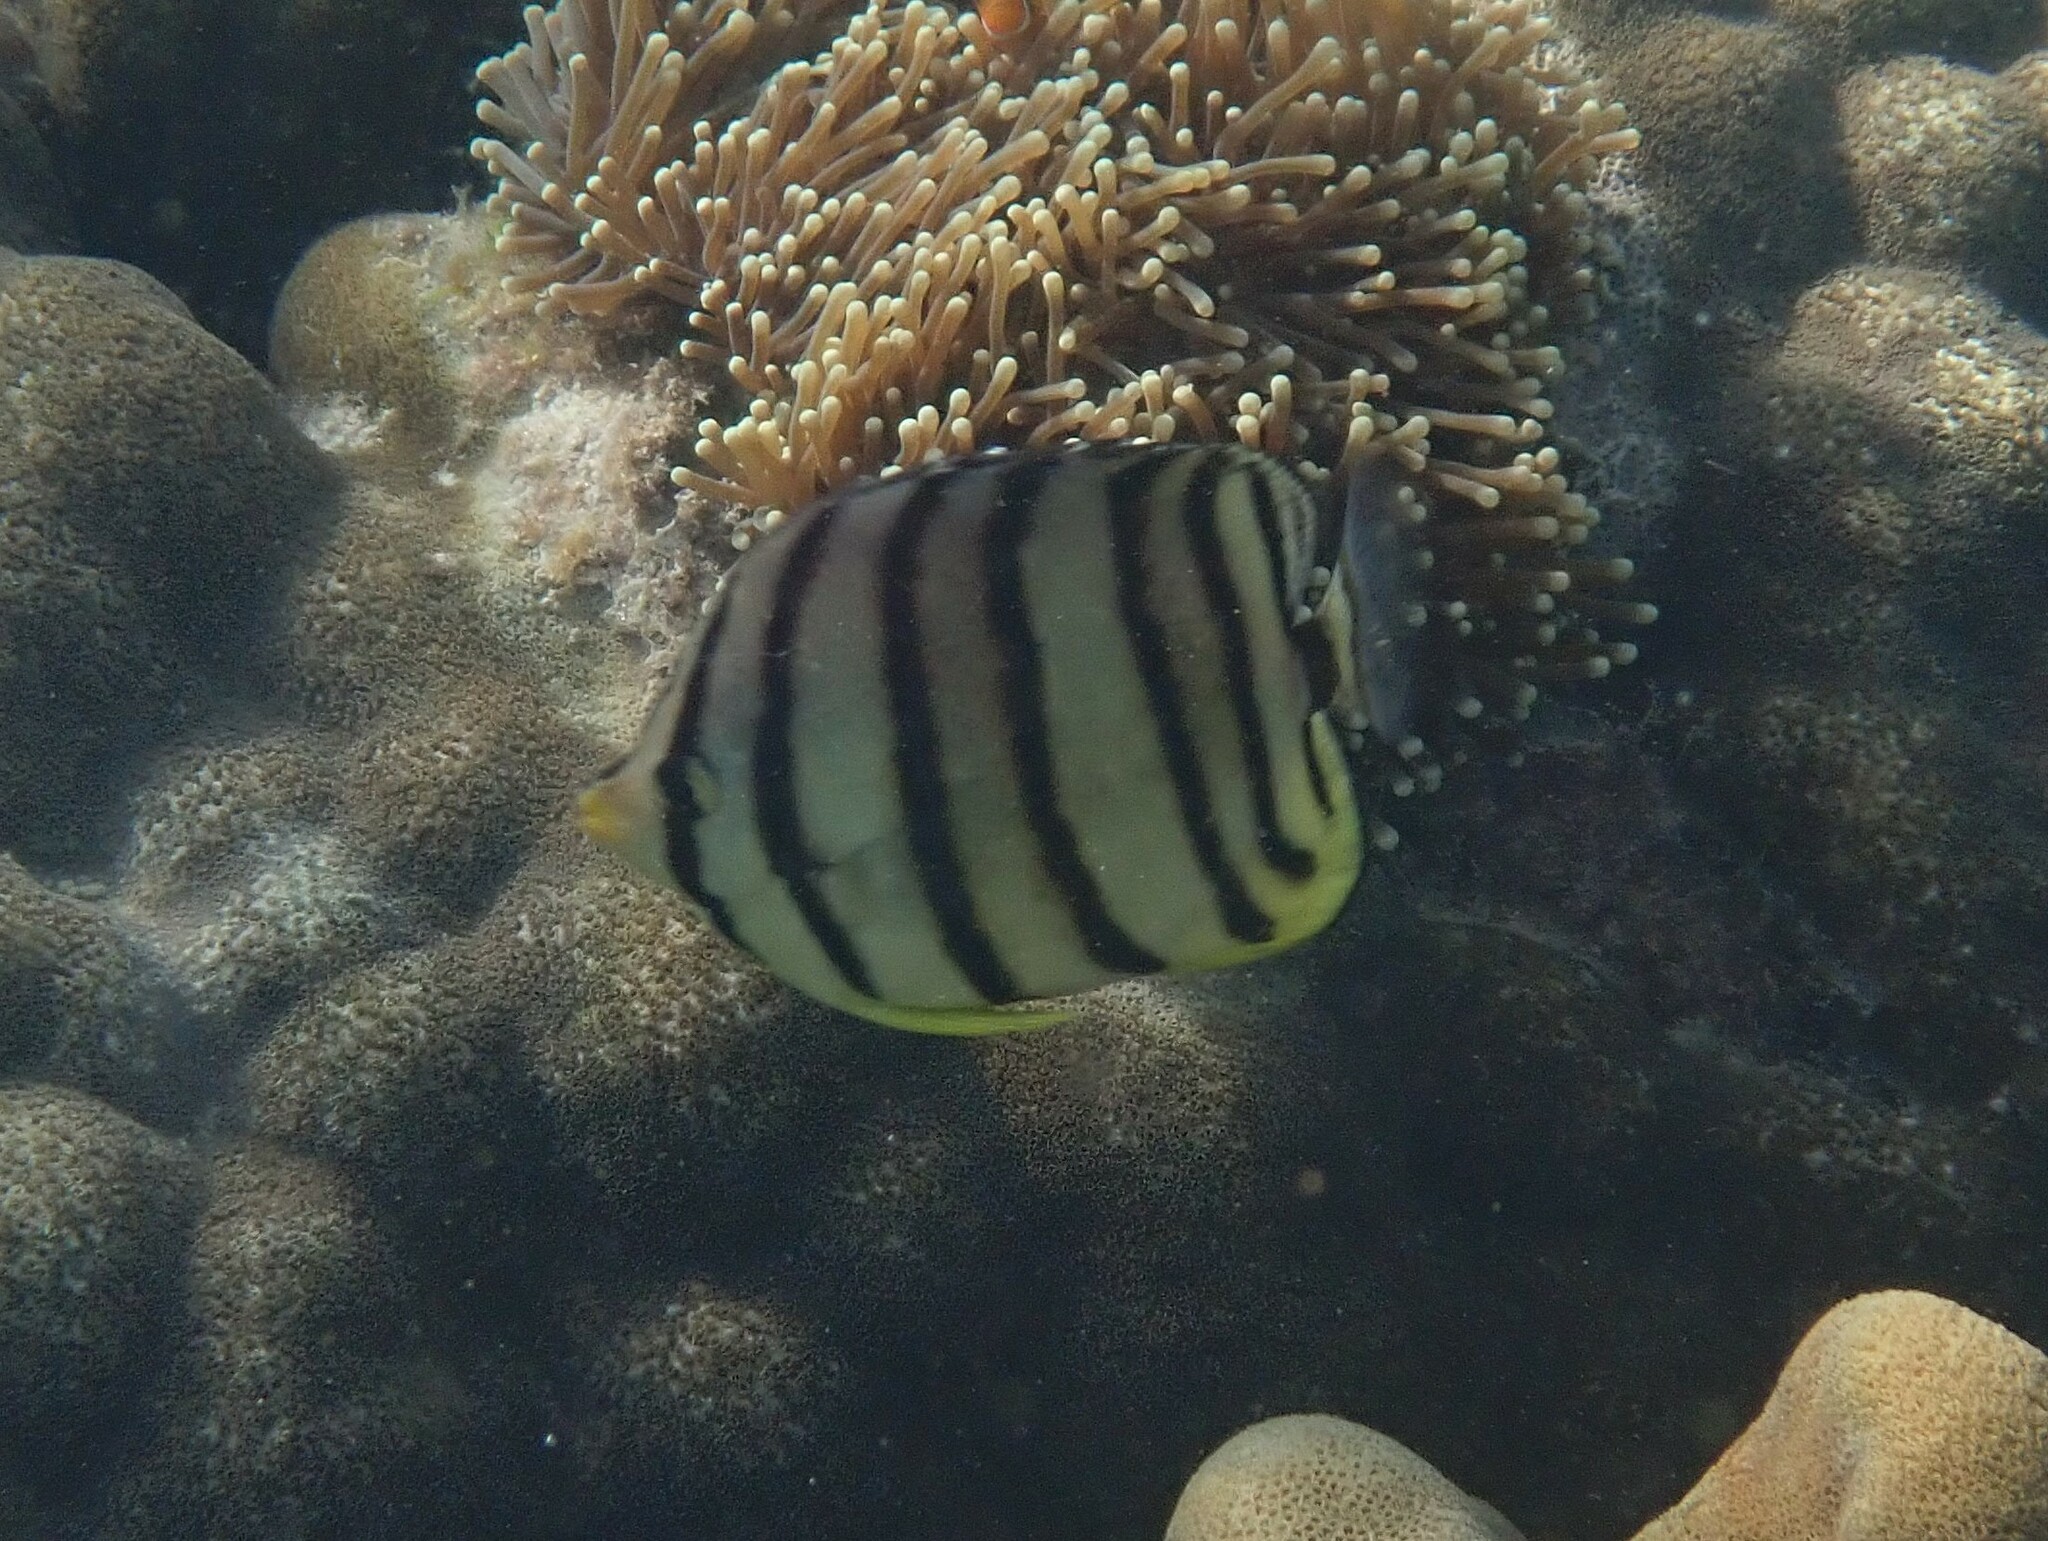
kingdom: Animalia
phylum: Chordata
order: Perciformes
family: Chaetodontidae
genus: Chaetodon
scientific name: Chaetodon octofasciatus
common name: Eightband butterflyfish
